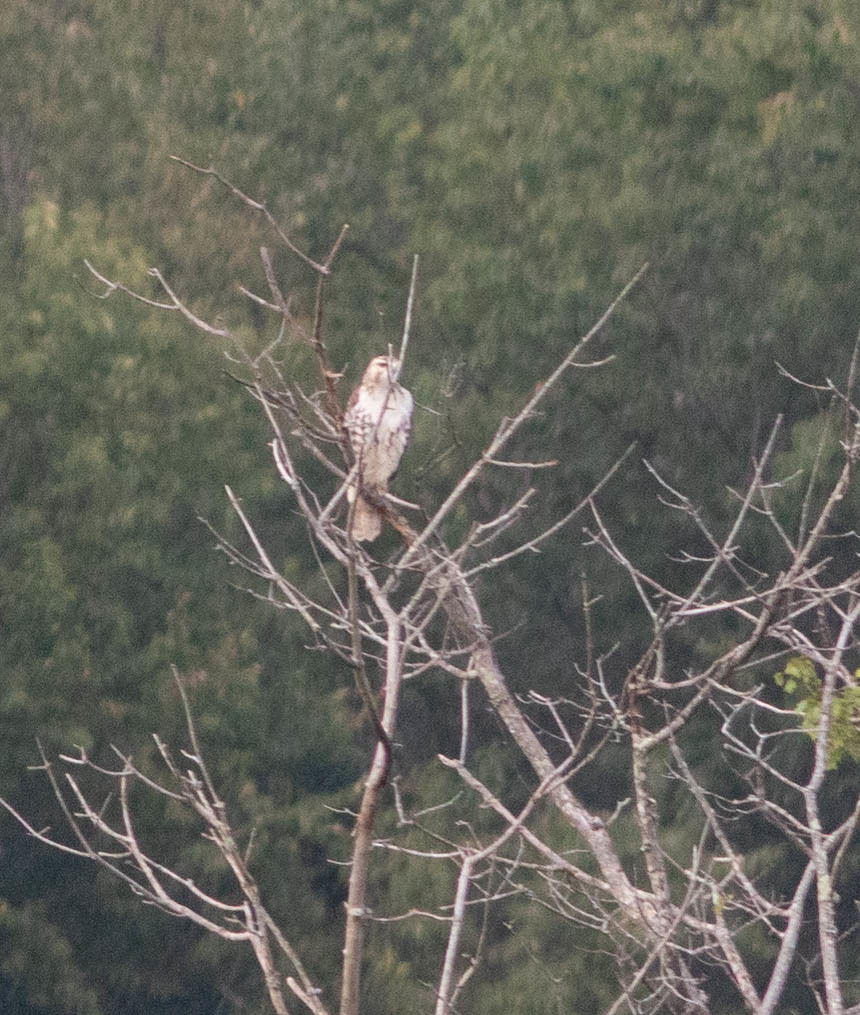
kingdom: Animalia
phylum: Chordata
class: Aves
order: Accipitriformes
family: Accipitridae
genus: Buteo
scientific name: Buteo jamaicensis
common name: Red-tailed hawk
